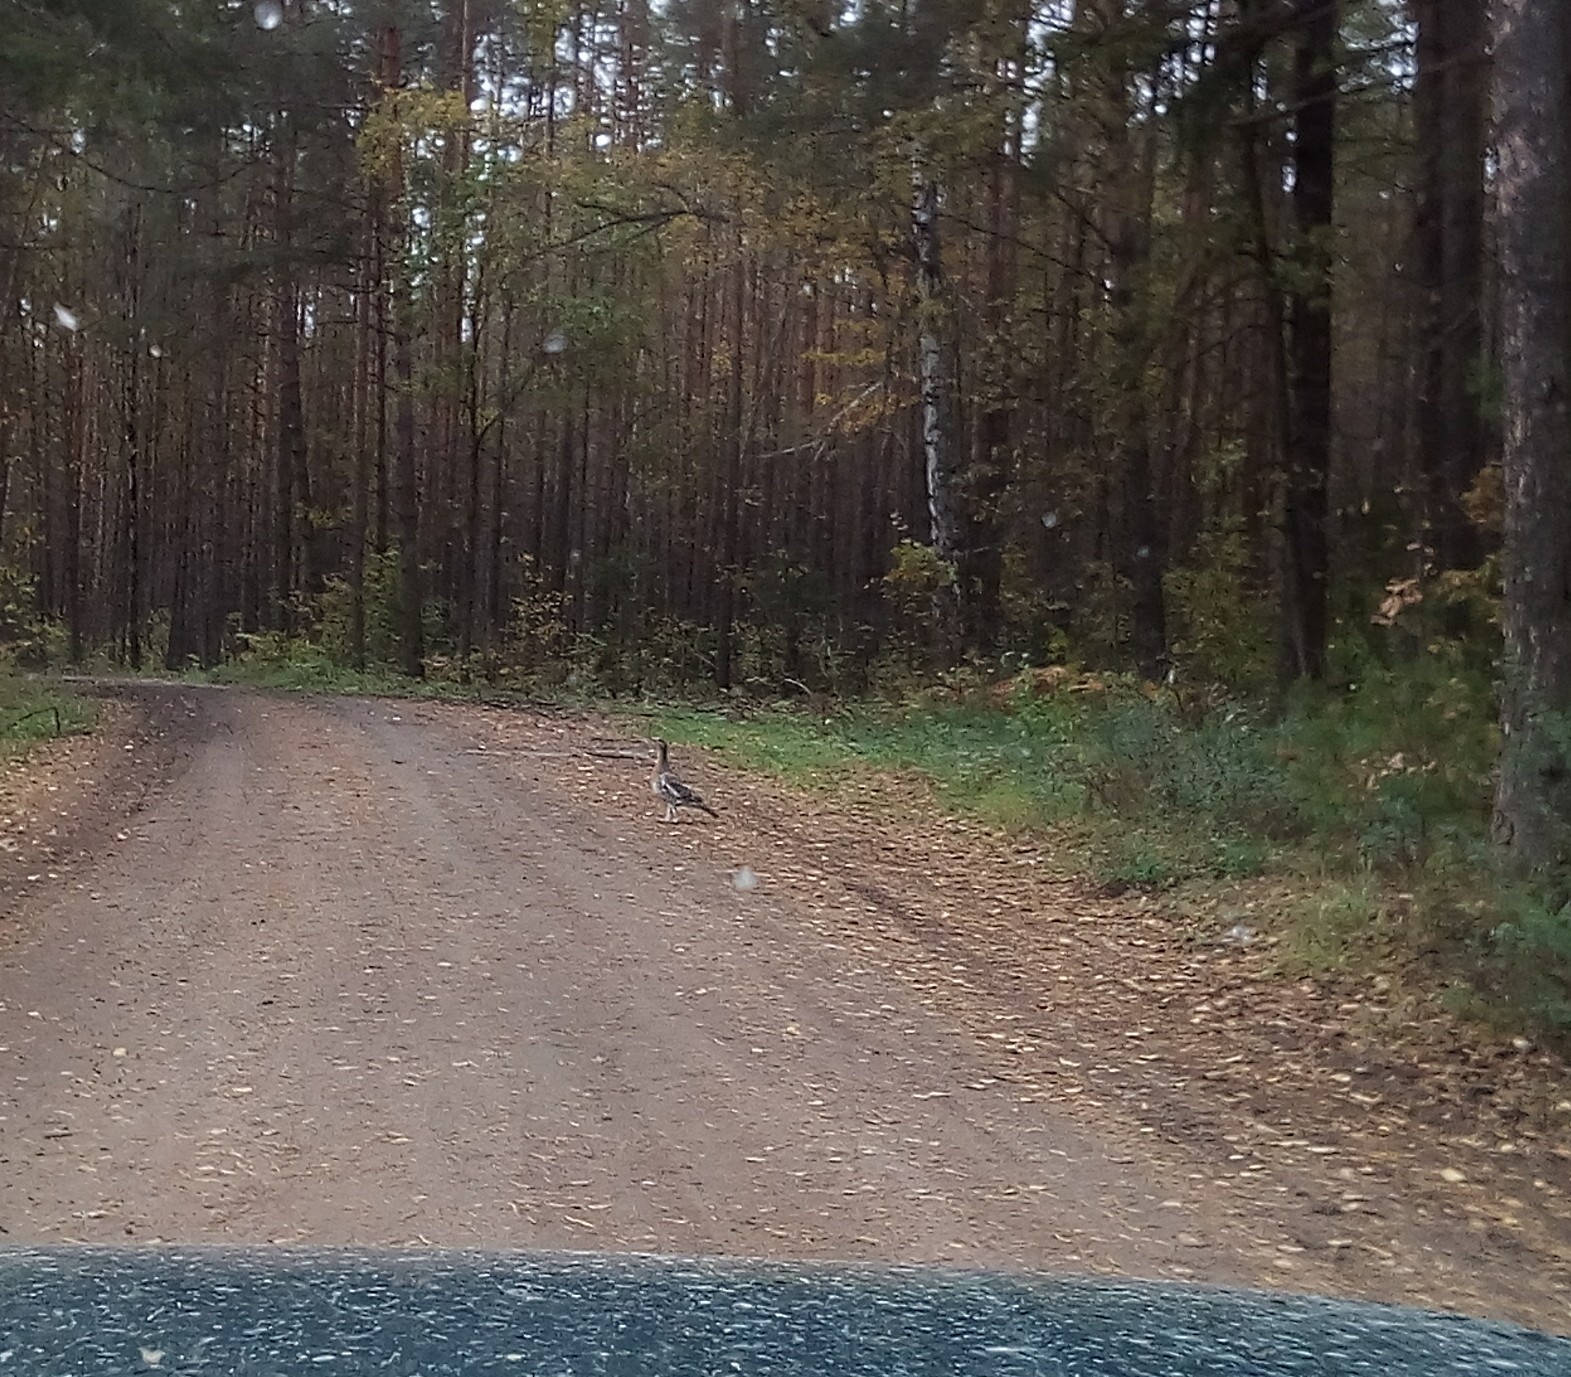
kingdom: Animalia
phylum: Chordata
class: Aves
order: Galliformes
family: Phasianidae
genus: Tetrao
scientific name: Tetrao urogallus
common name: Western capercaillie
